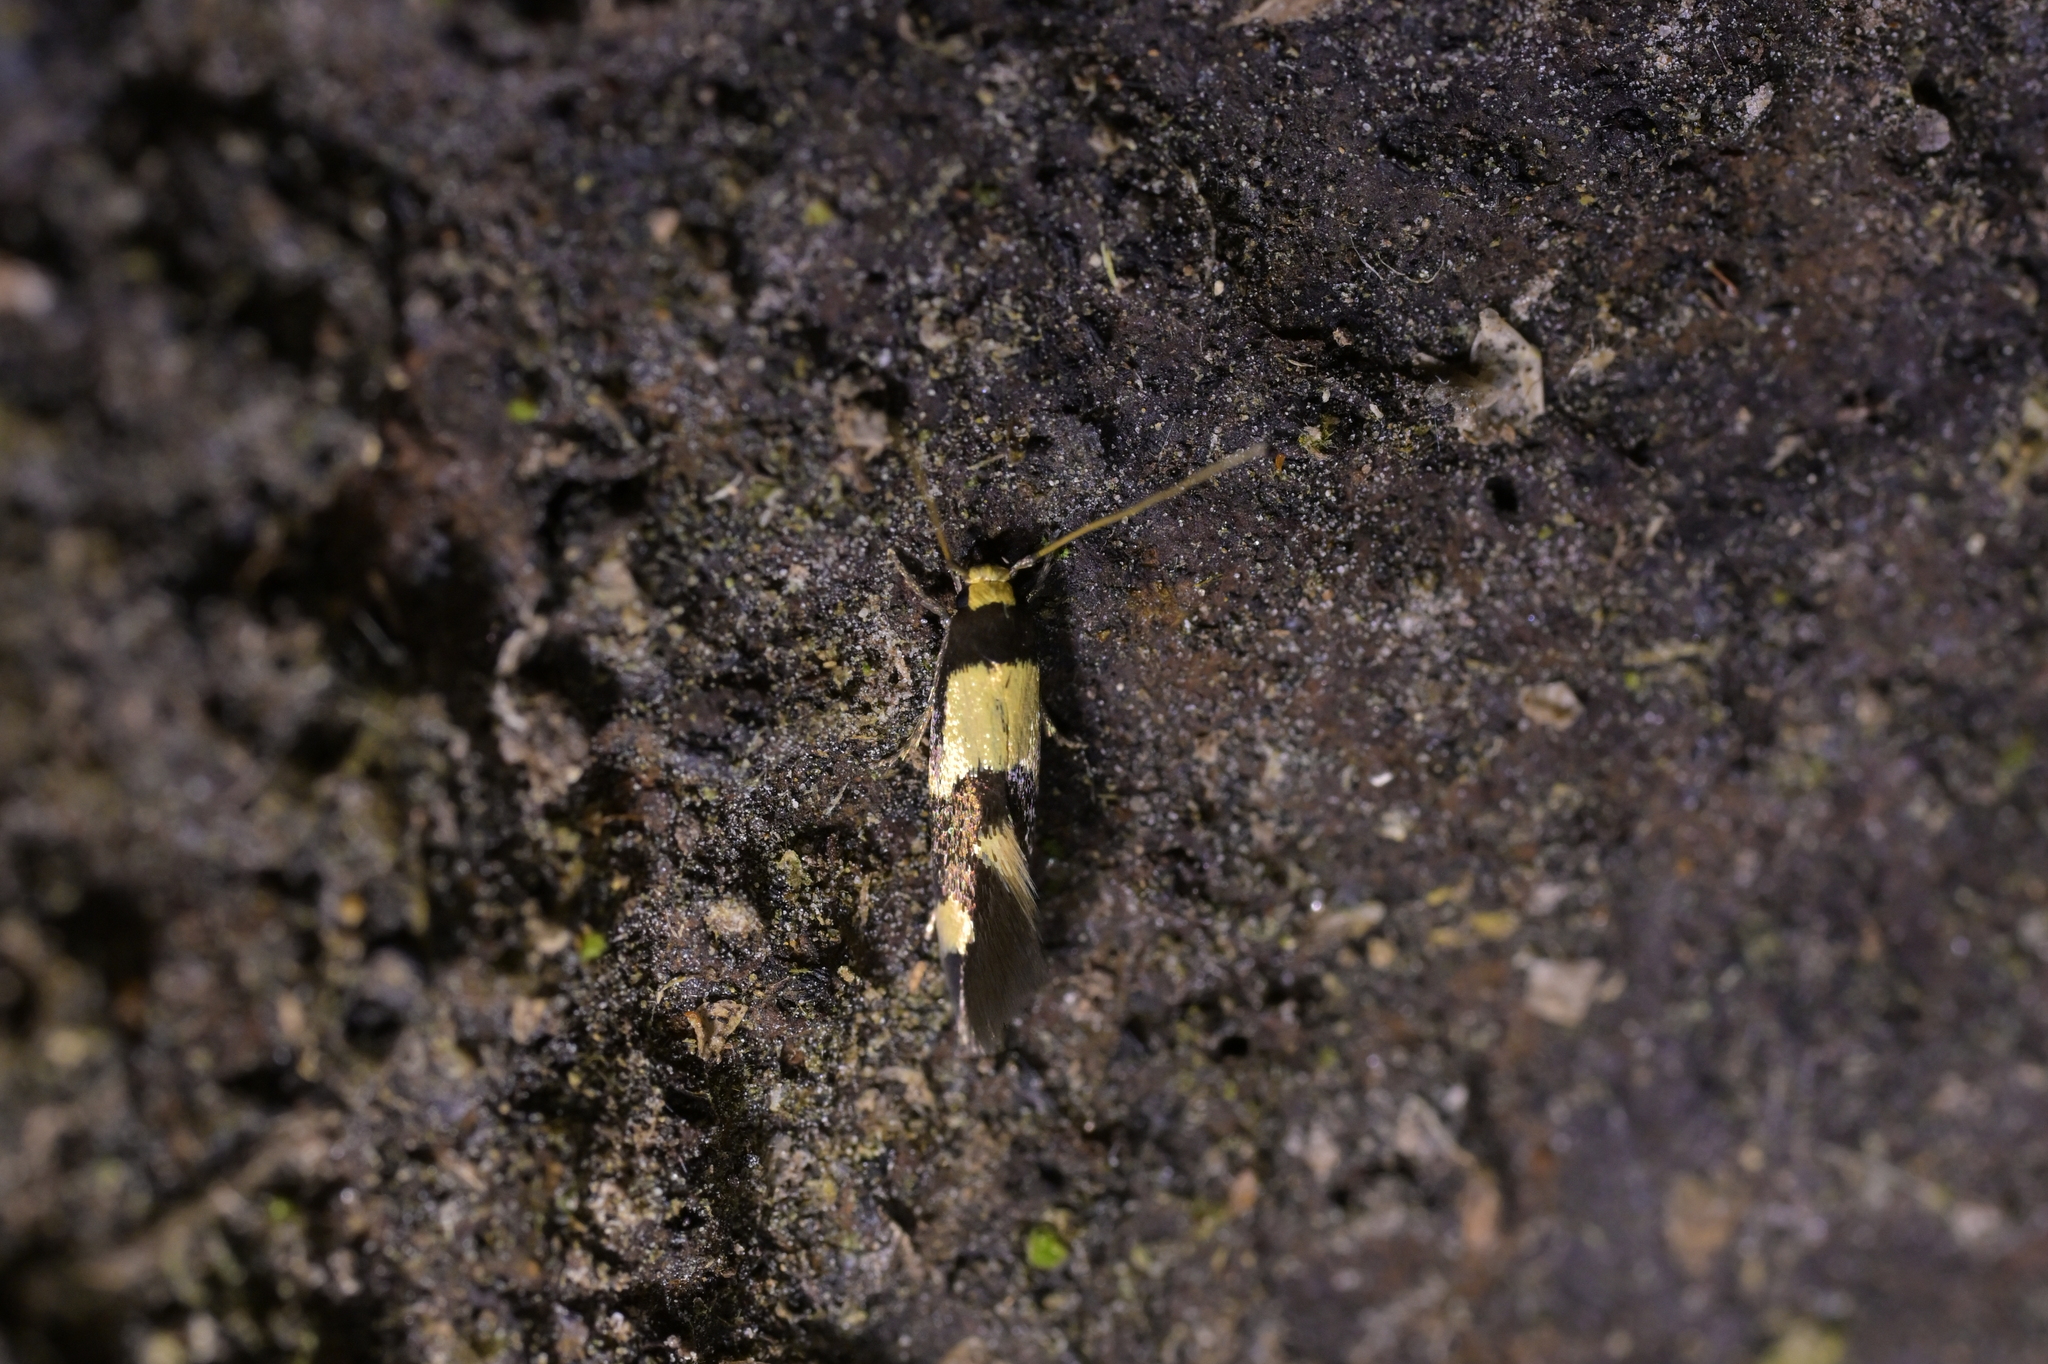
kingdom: Animalia
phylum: Arthropoda
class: Insecta
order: Lepidoptera
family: Tineidae
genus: Opogona
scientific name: Opogona comptella
